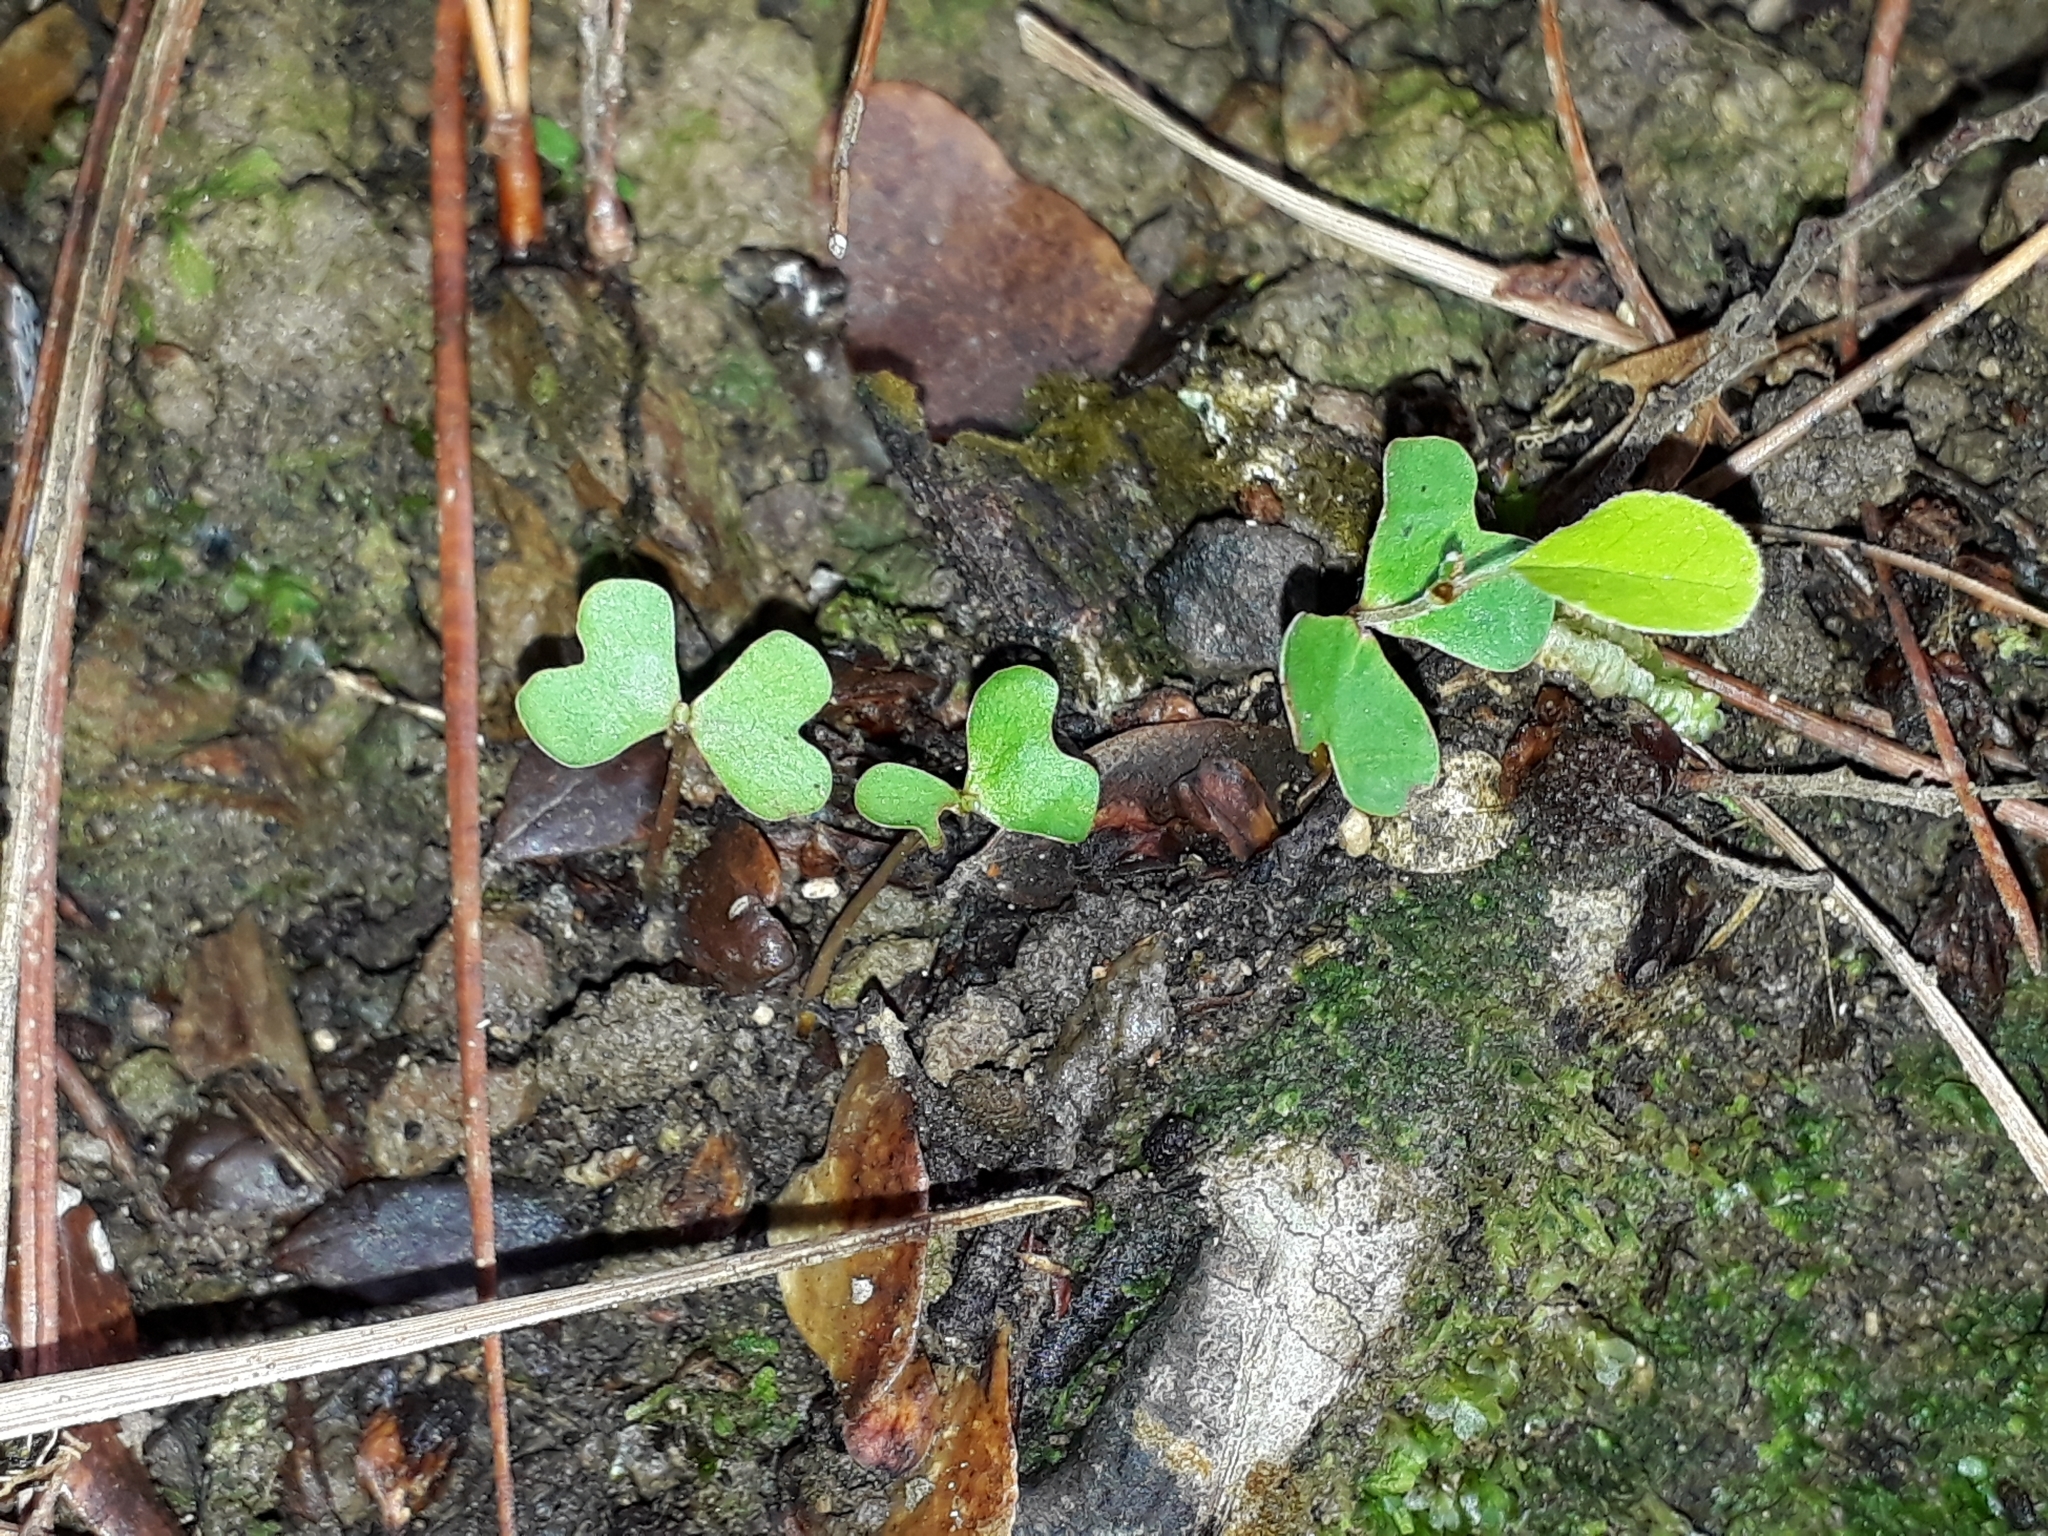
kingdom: Plantae
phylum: Tracheophyta
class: Magnoliopsida
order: Fagales
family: Nothofagaceae
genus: Nothofagus
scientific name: Nothofagus solandri
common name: Black beech
